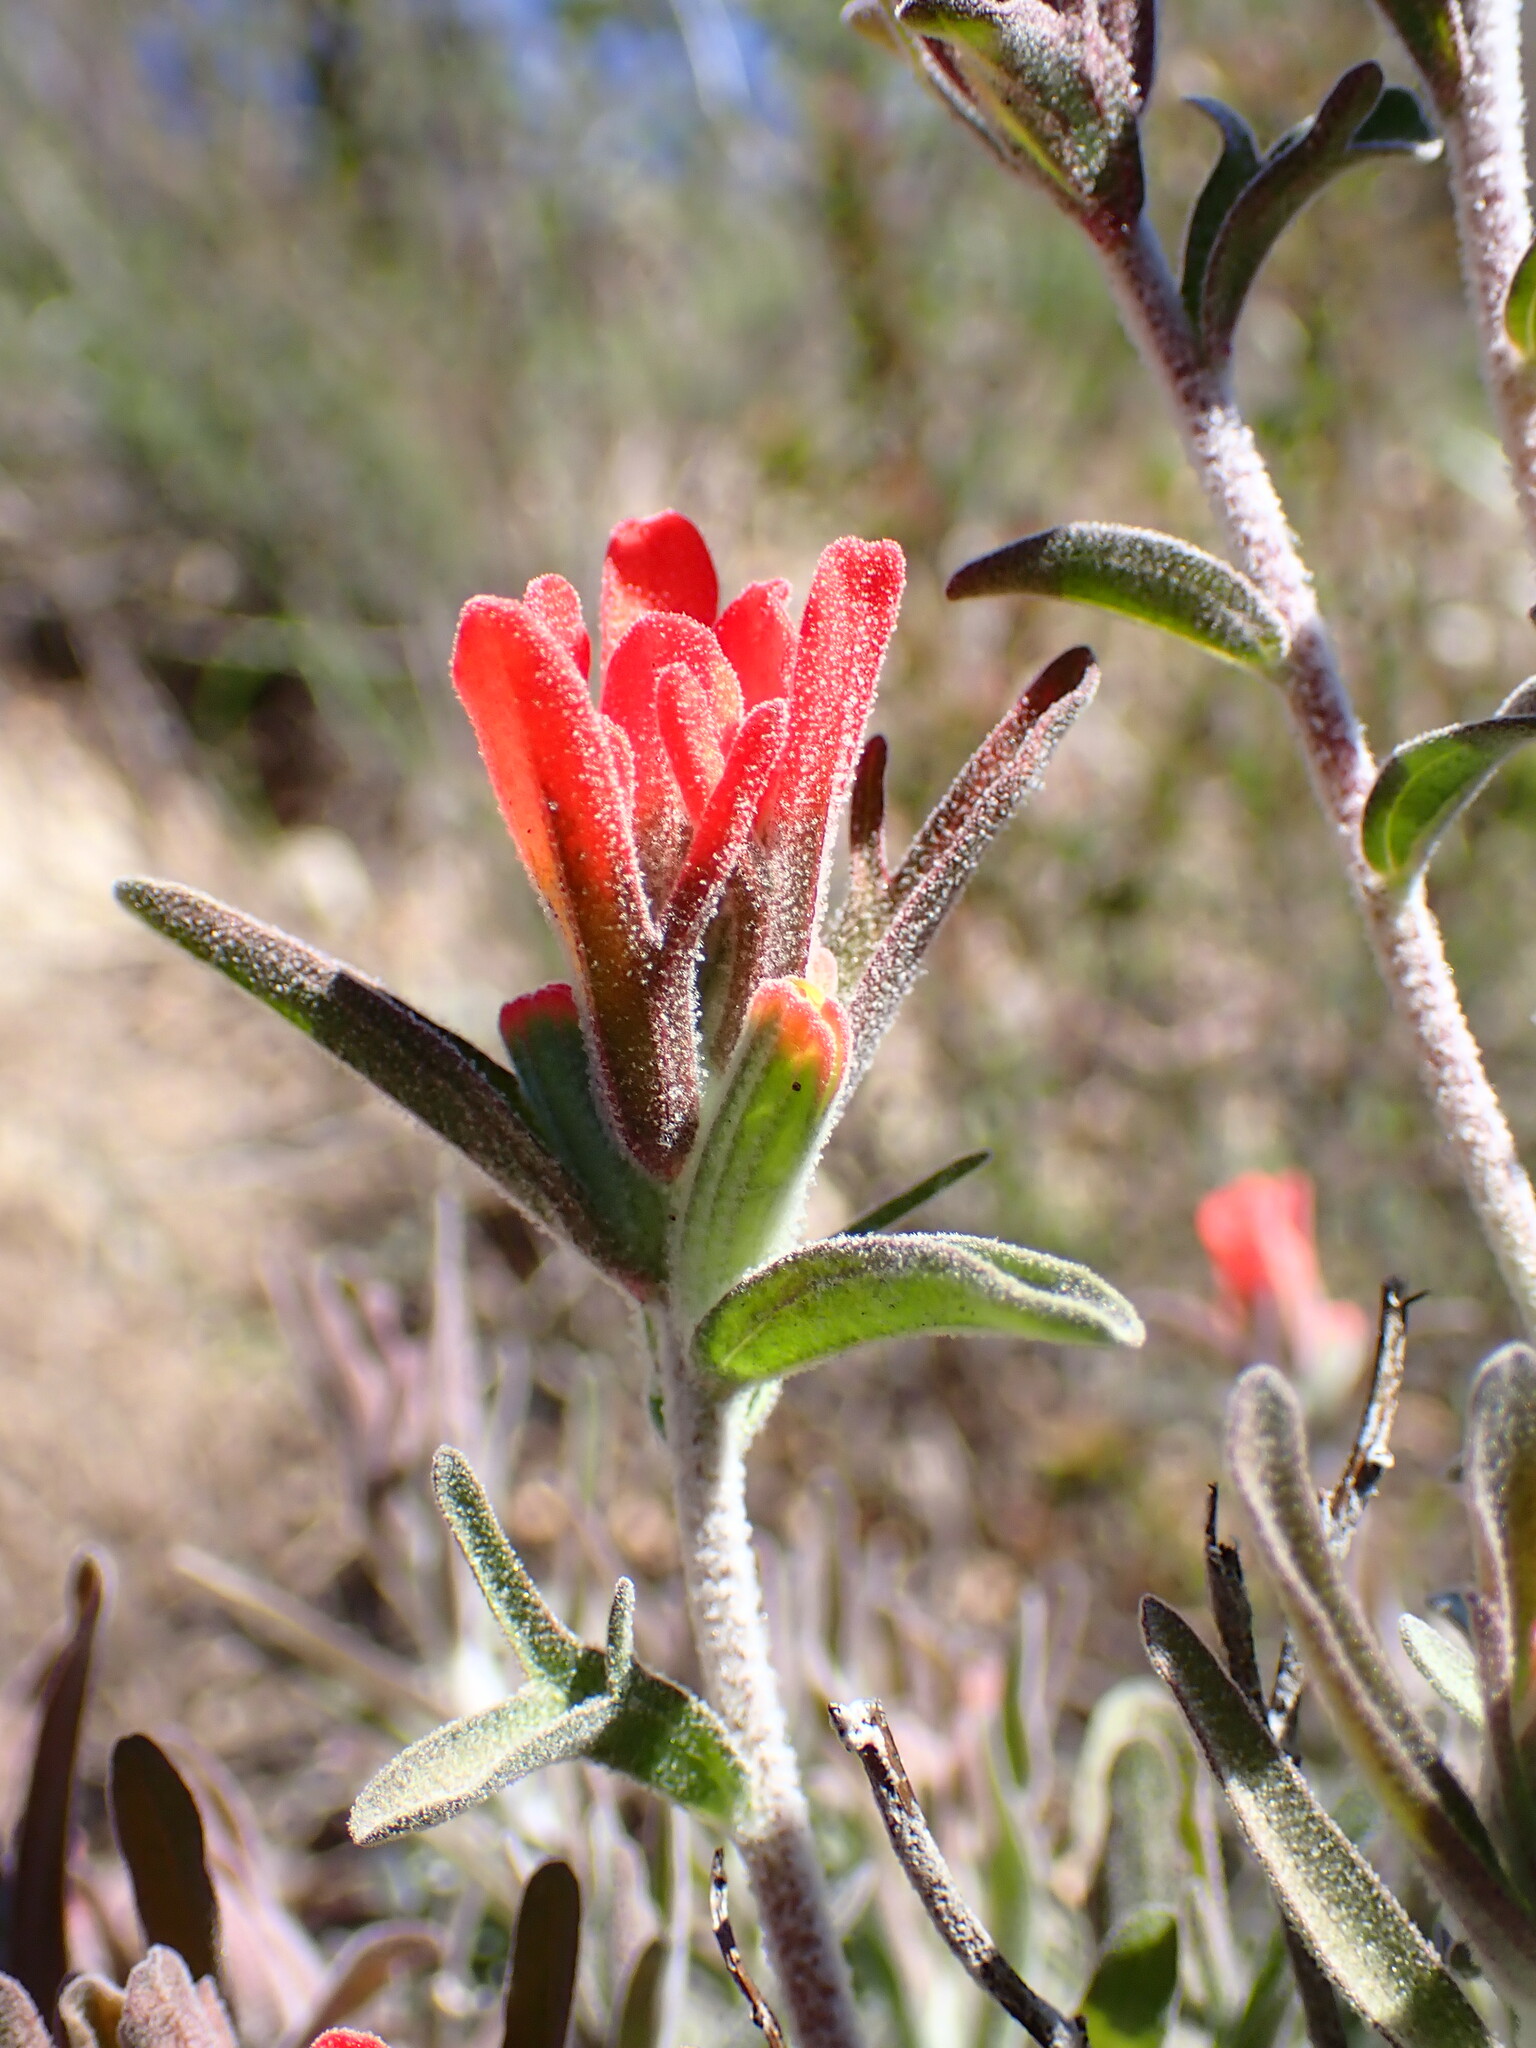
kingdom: Plantae
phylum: Tracheophyta
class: Magnoliopsida
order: Lamiales
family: Orobanchaceae
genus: Castilleja
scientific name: Castilleja foliolosa
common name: Woolly indian paintbrush
